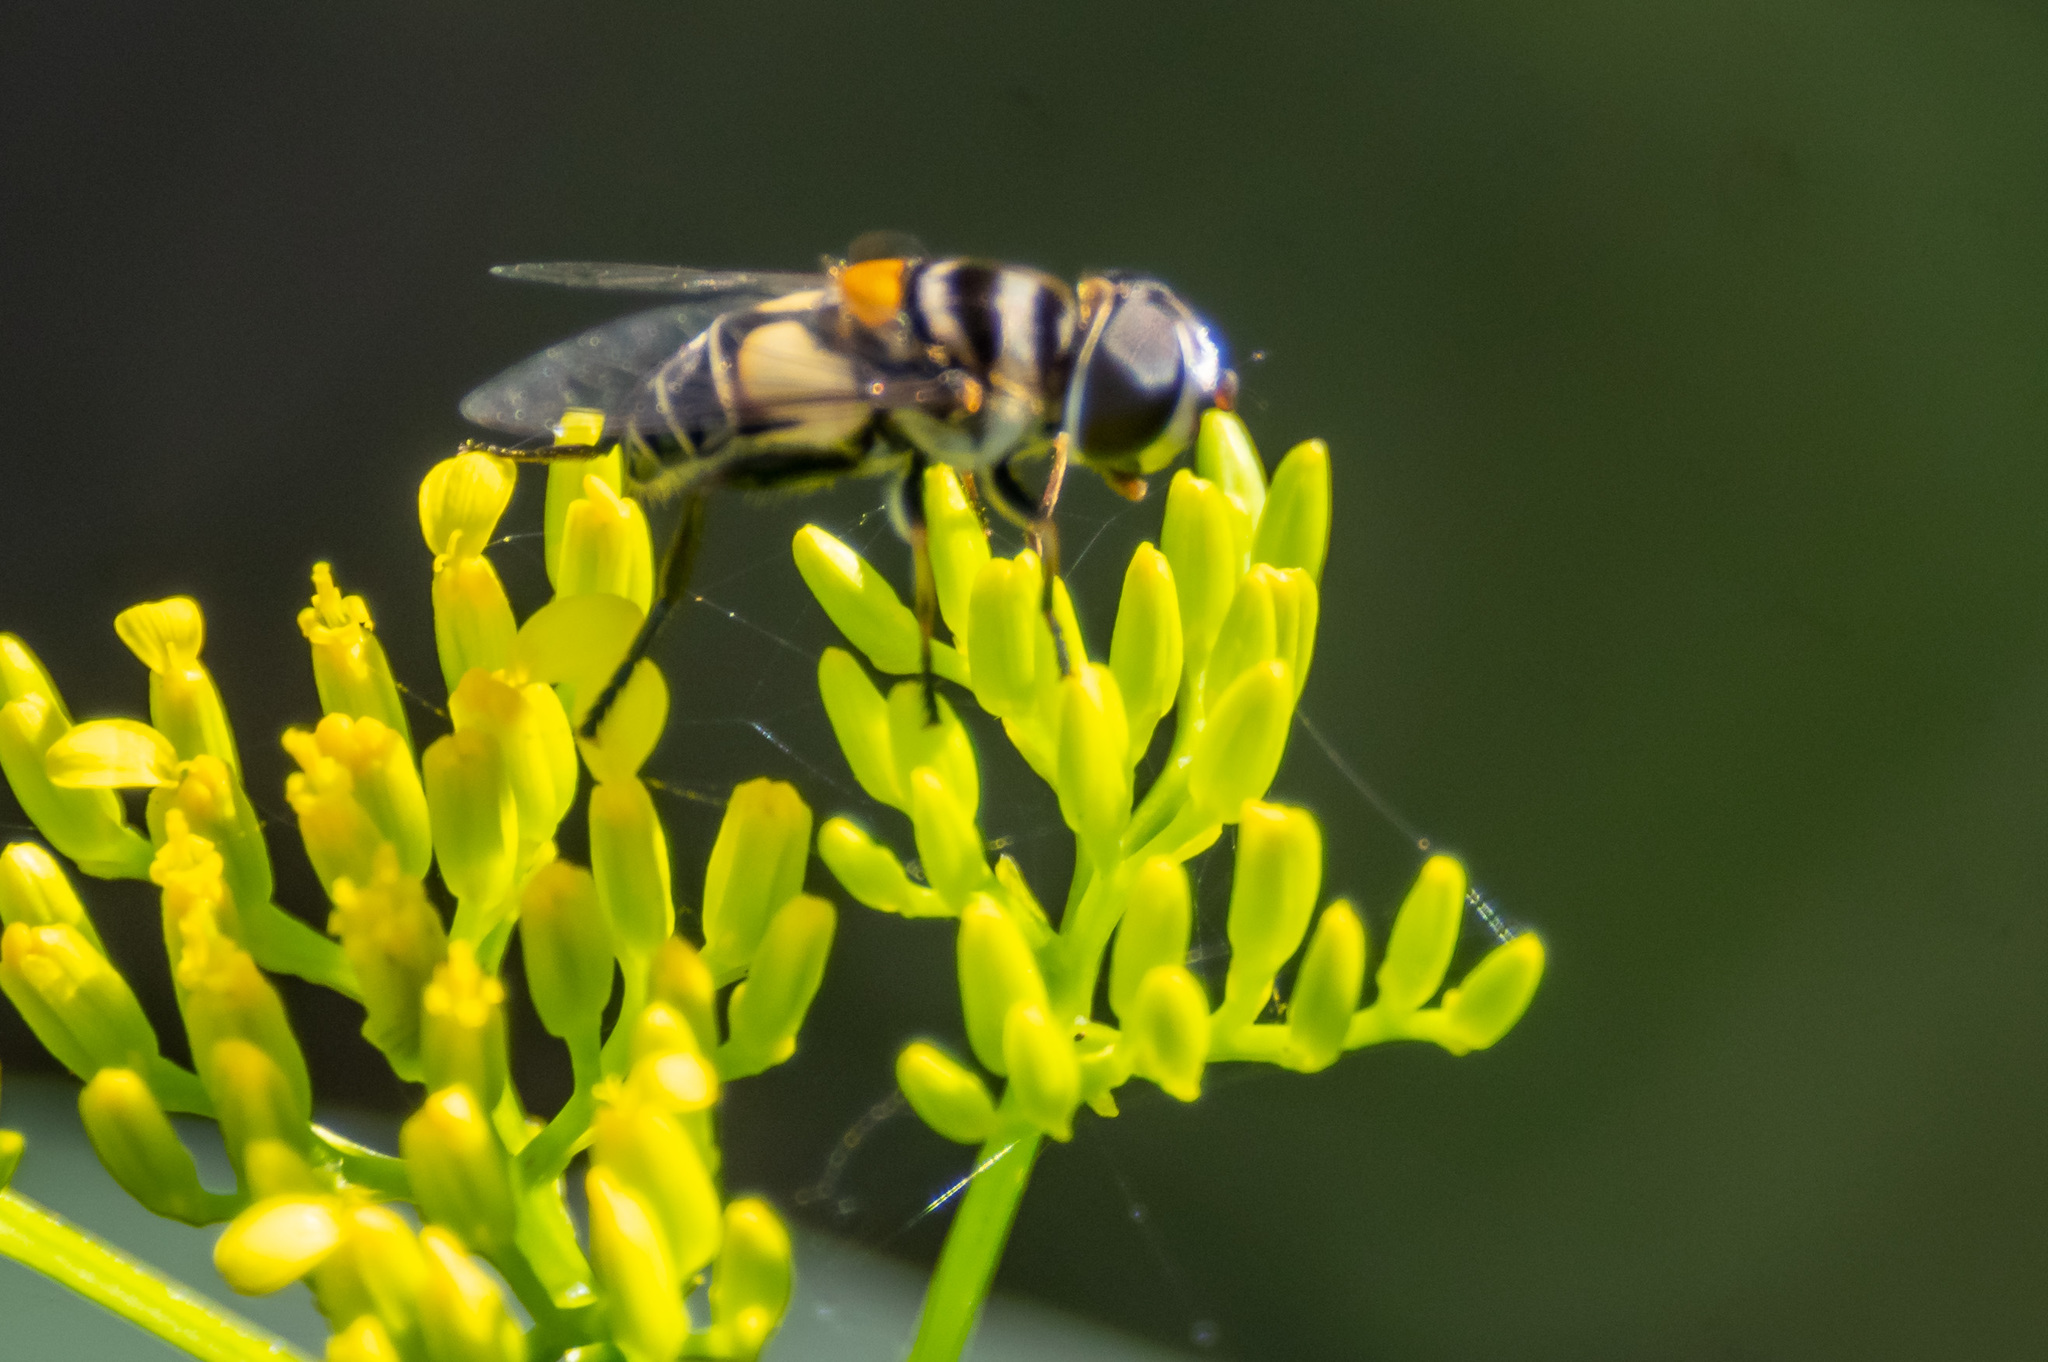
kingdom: Animalia
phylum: Arthropoda
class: Insecta
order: Diptera
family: Syrphidae
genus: Palpada
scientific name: Palpada albifrons
